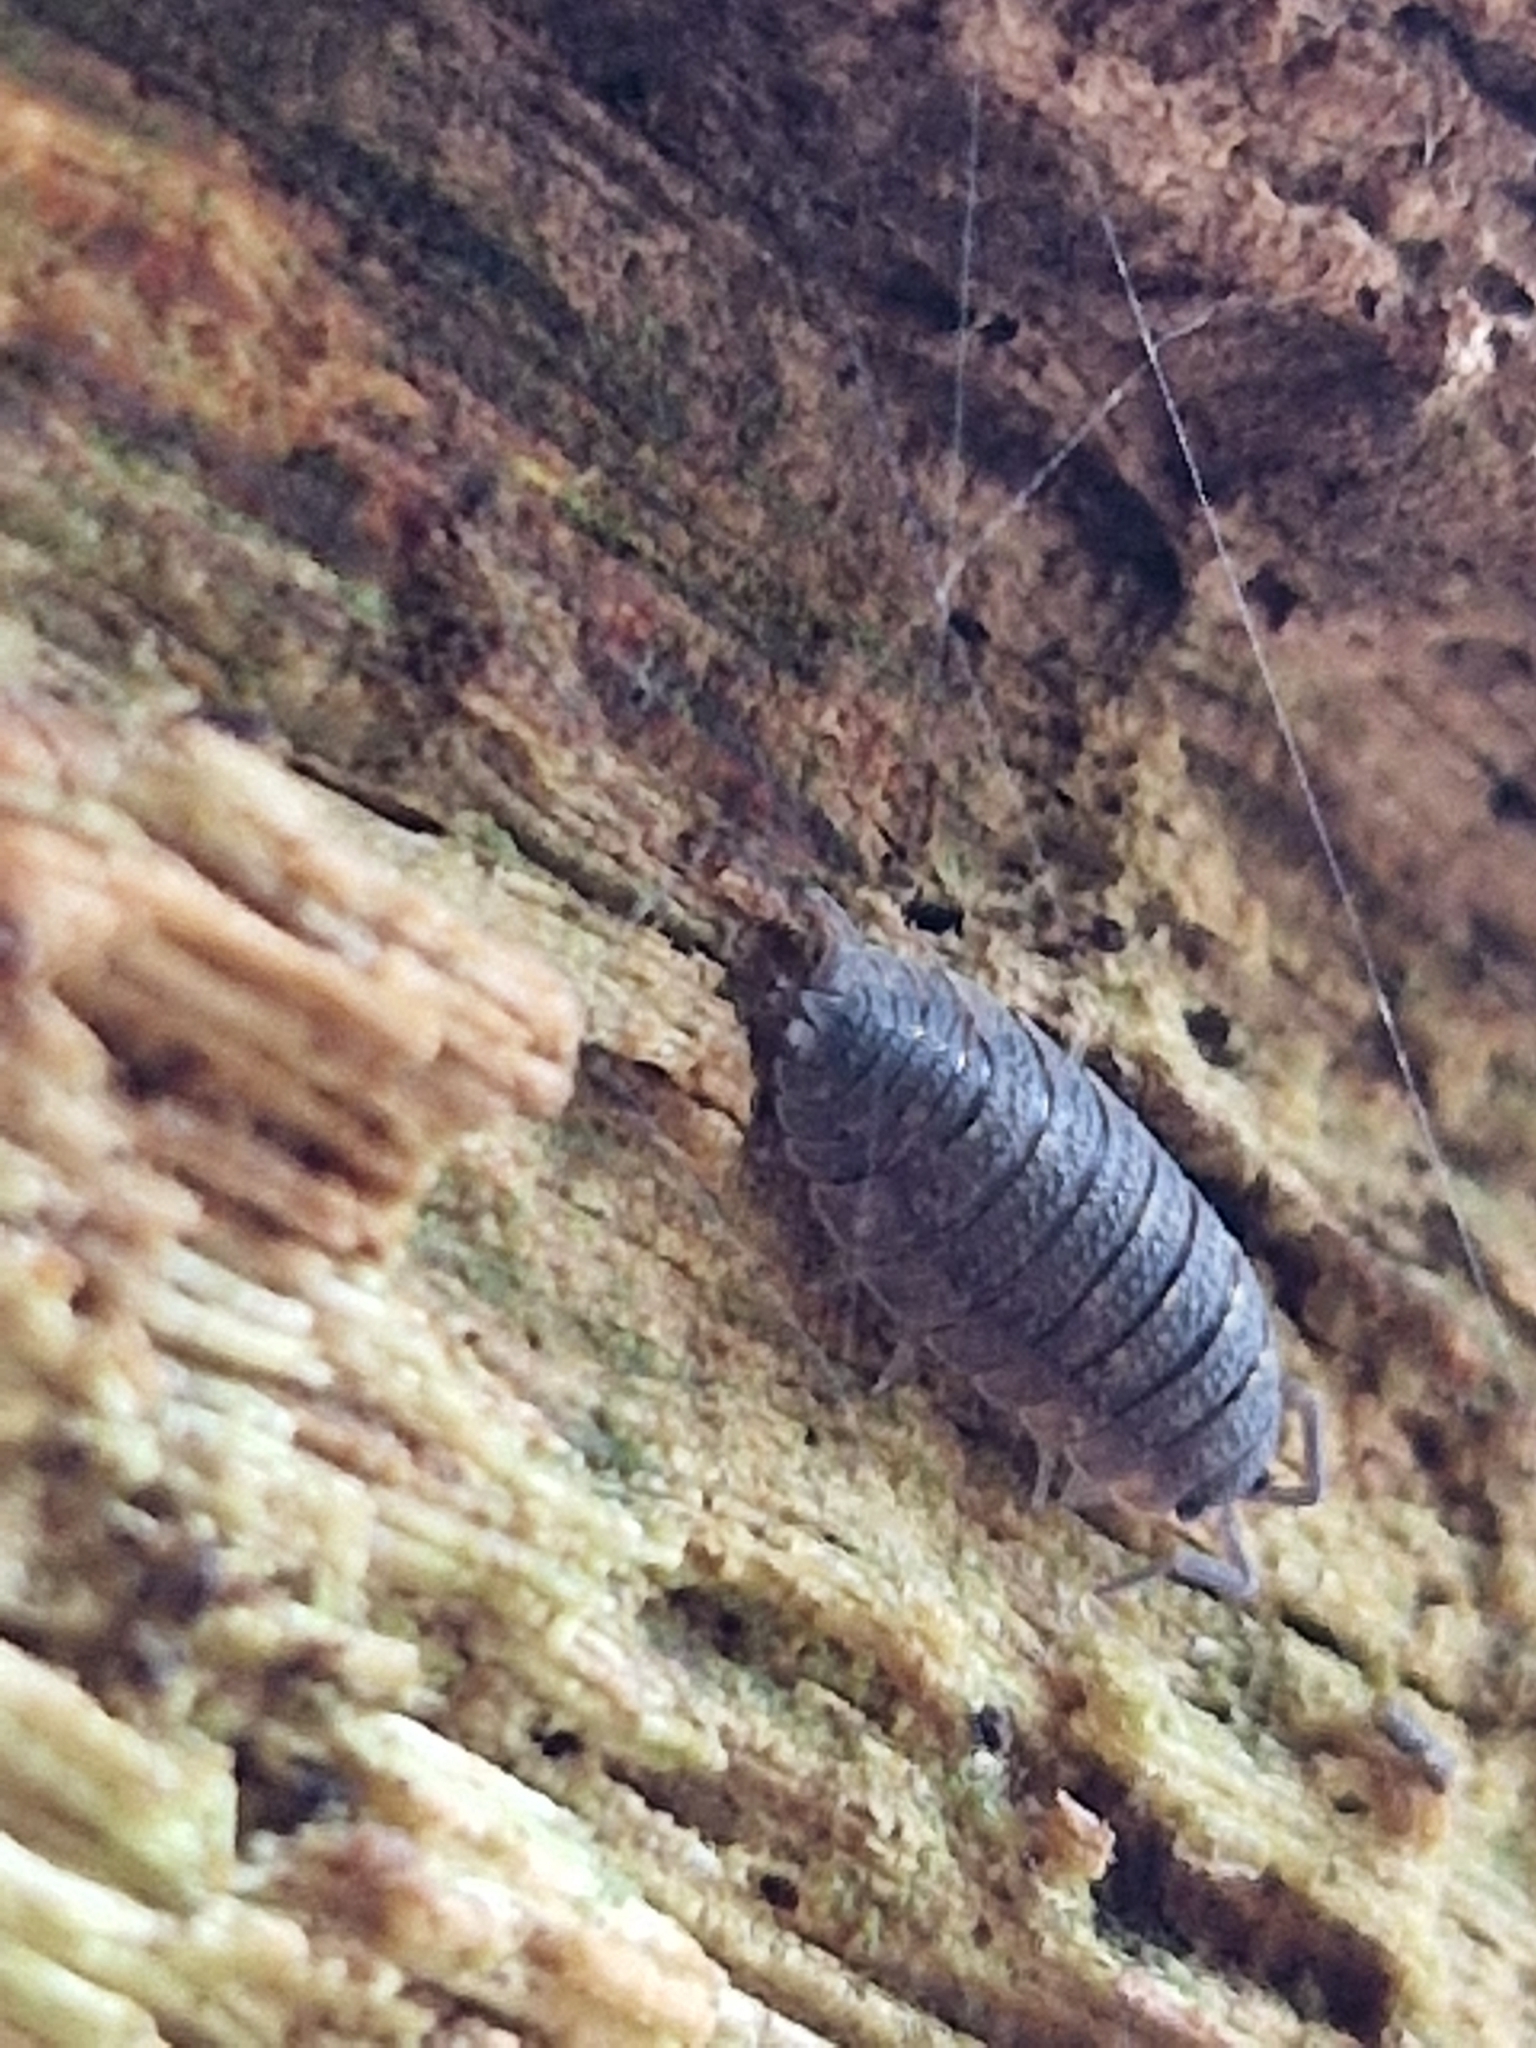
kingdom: Animalia
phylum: Arthropoda
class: Malacostraca
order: Isopoda
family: Porcellionidae
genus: Porcellio
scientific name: Porcellio scaber
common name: Common rough woodlouse
